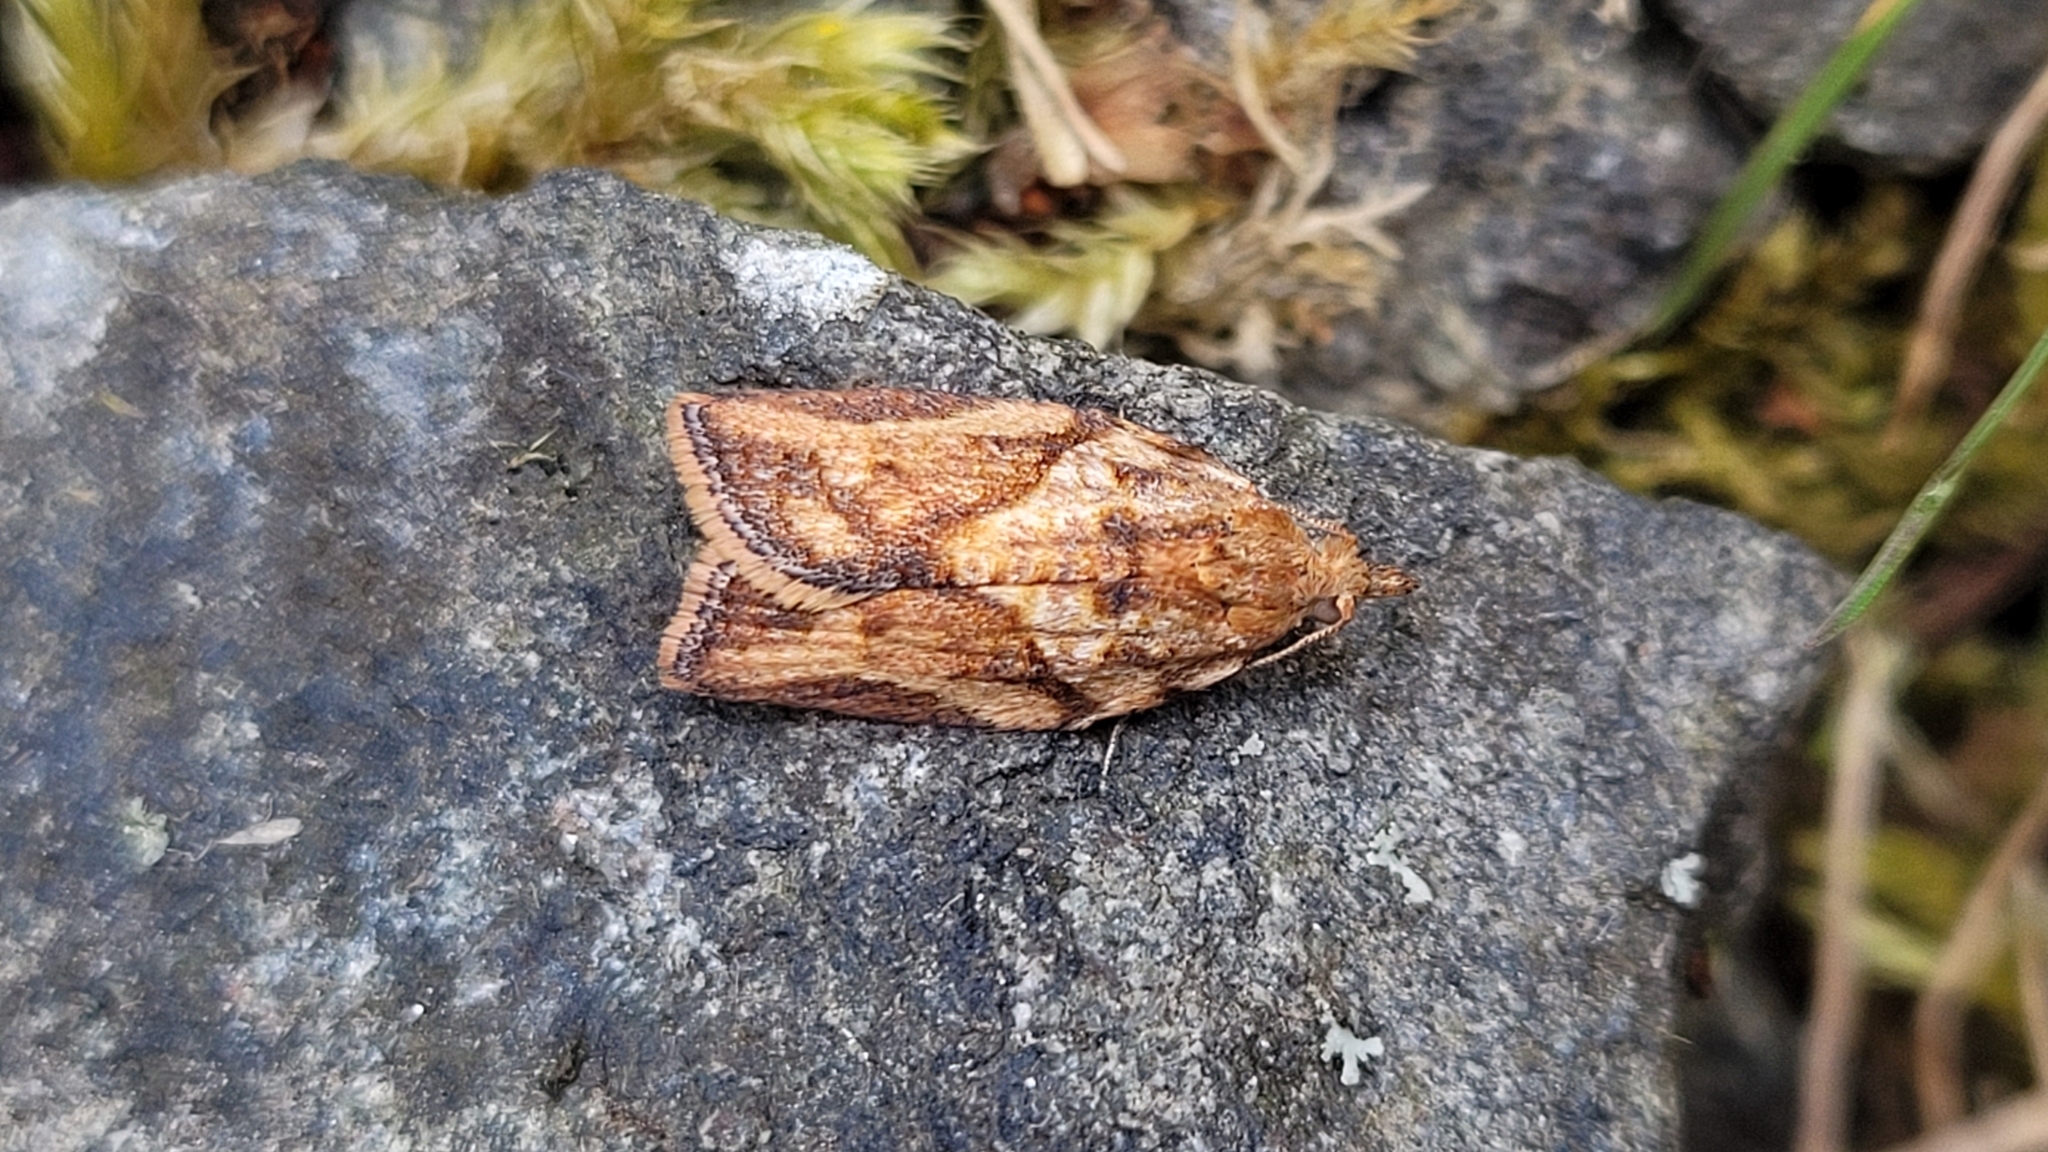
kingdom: Animalia
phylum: Arthropoda
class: Insecta
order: Lepidoptera
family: Tortricidae
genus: Epiphyas
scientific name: Epiphyas postvittana
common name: Light brown apple moth
